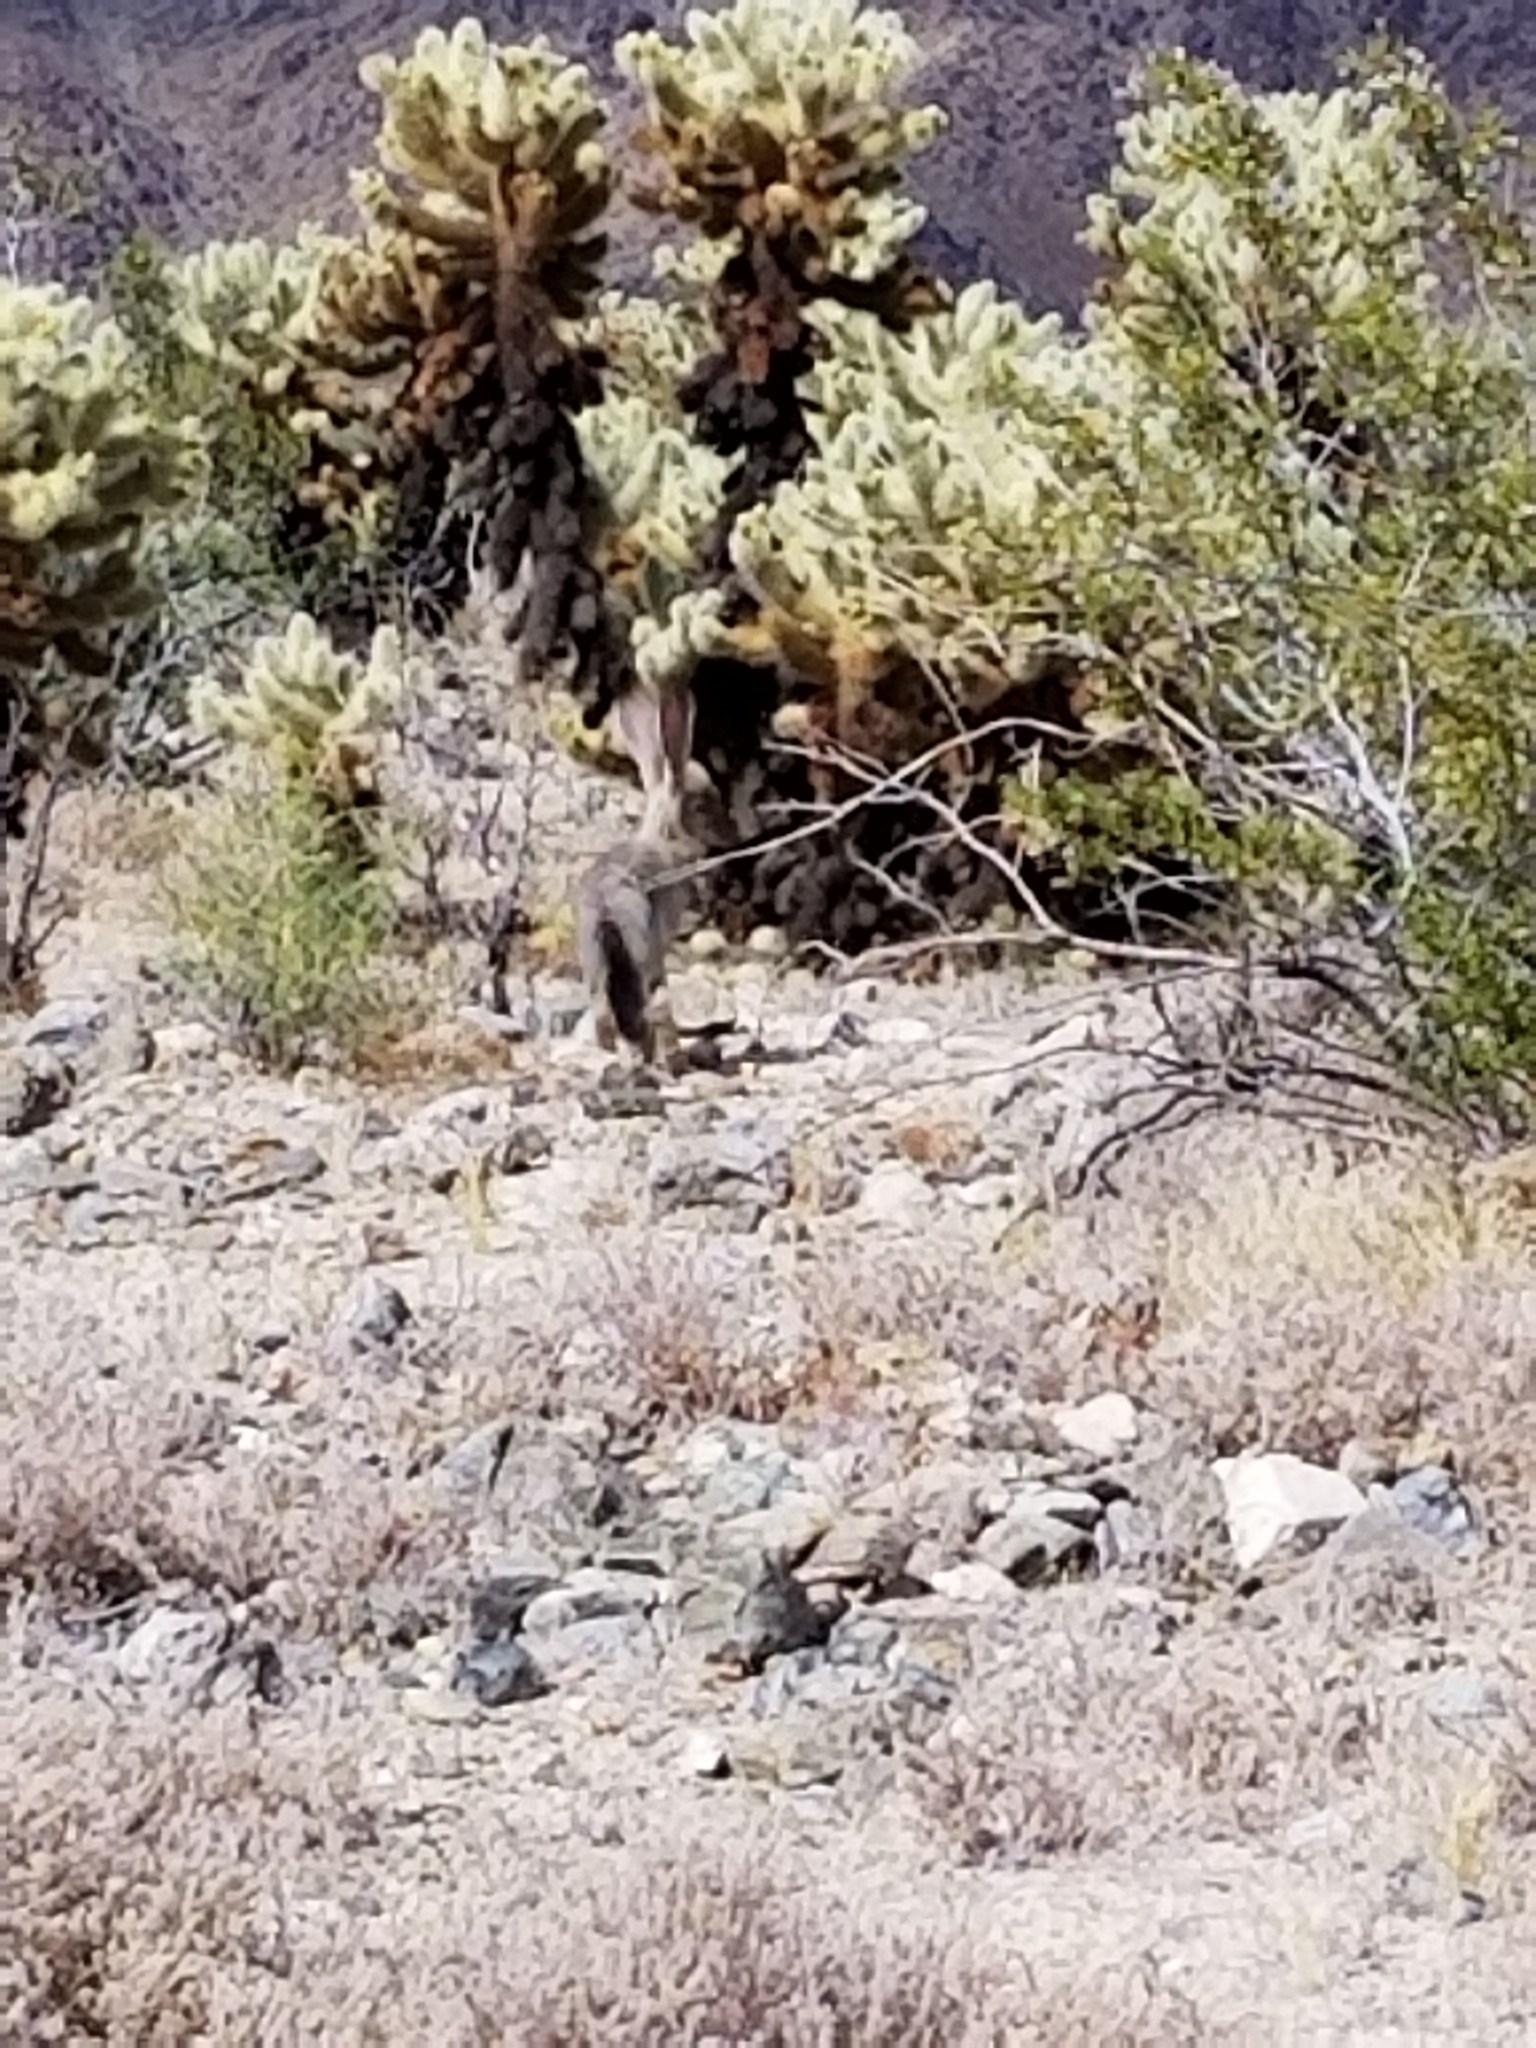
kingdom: Animalia
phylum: Chordata
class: Mammalia
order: Lagomorpha
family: Leporidae
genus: Lepus
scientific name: Lepus californicus
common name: Black-tailed jackrabbit
